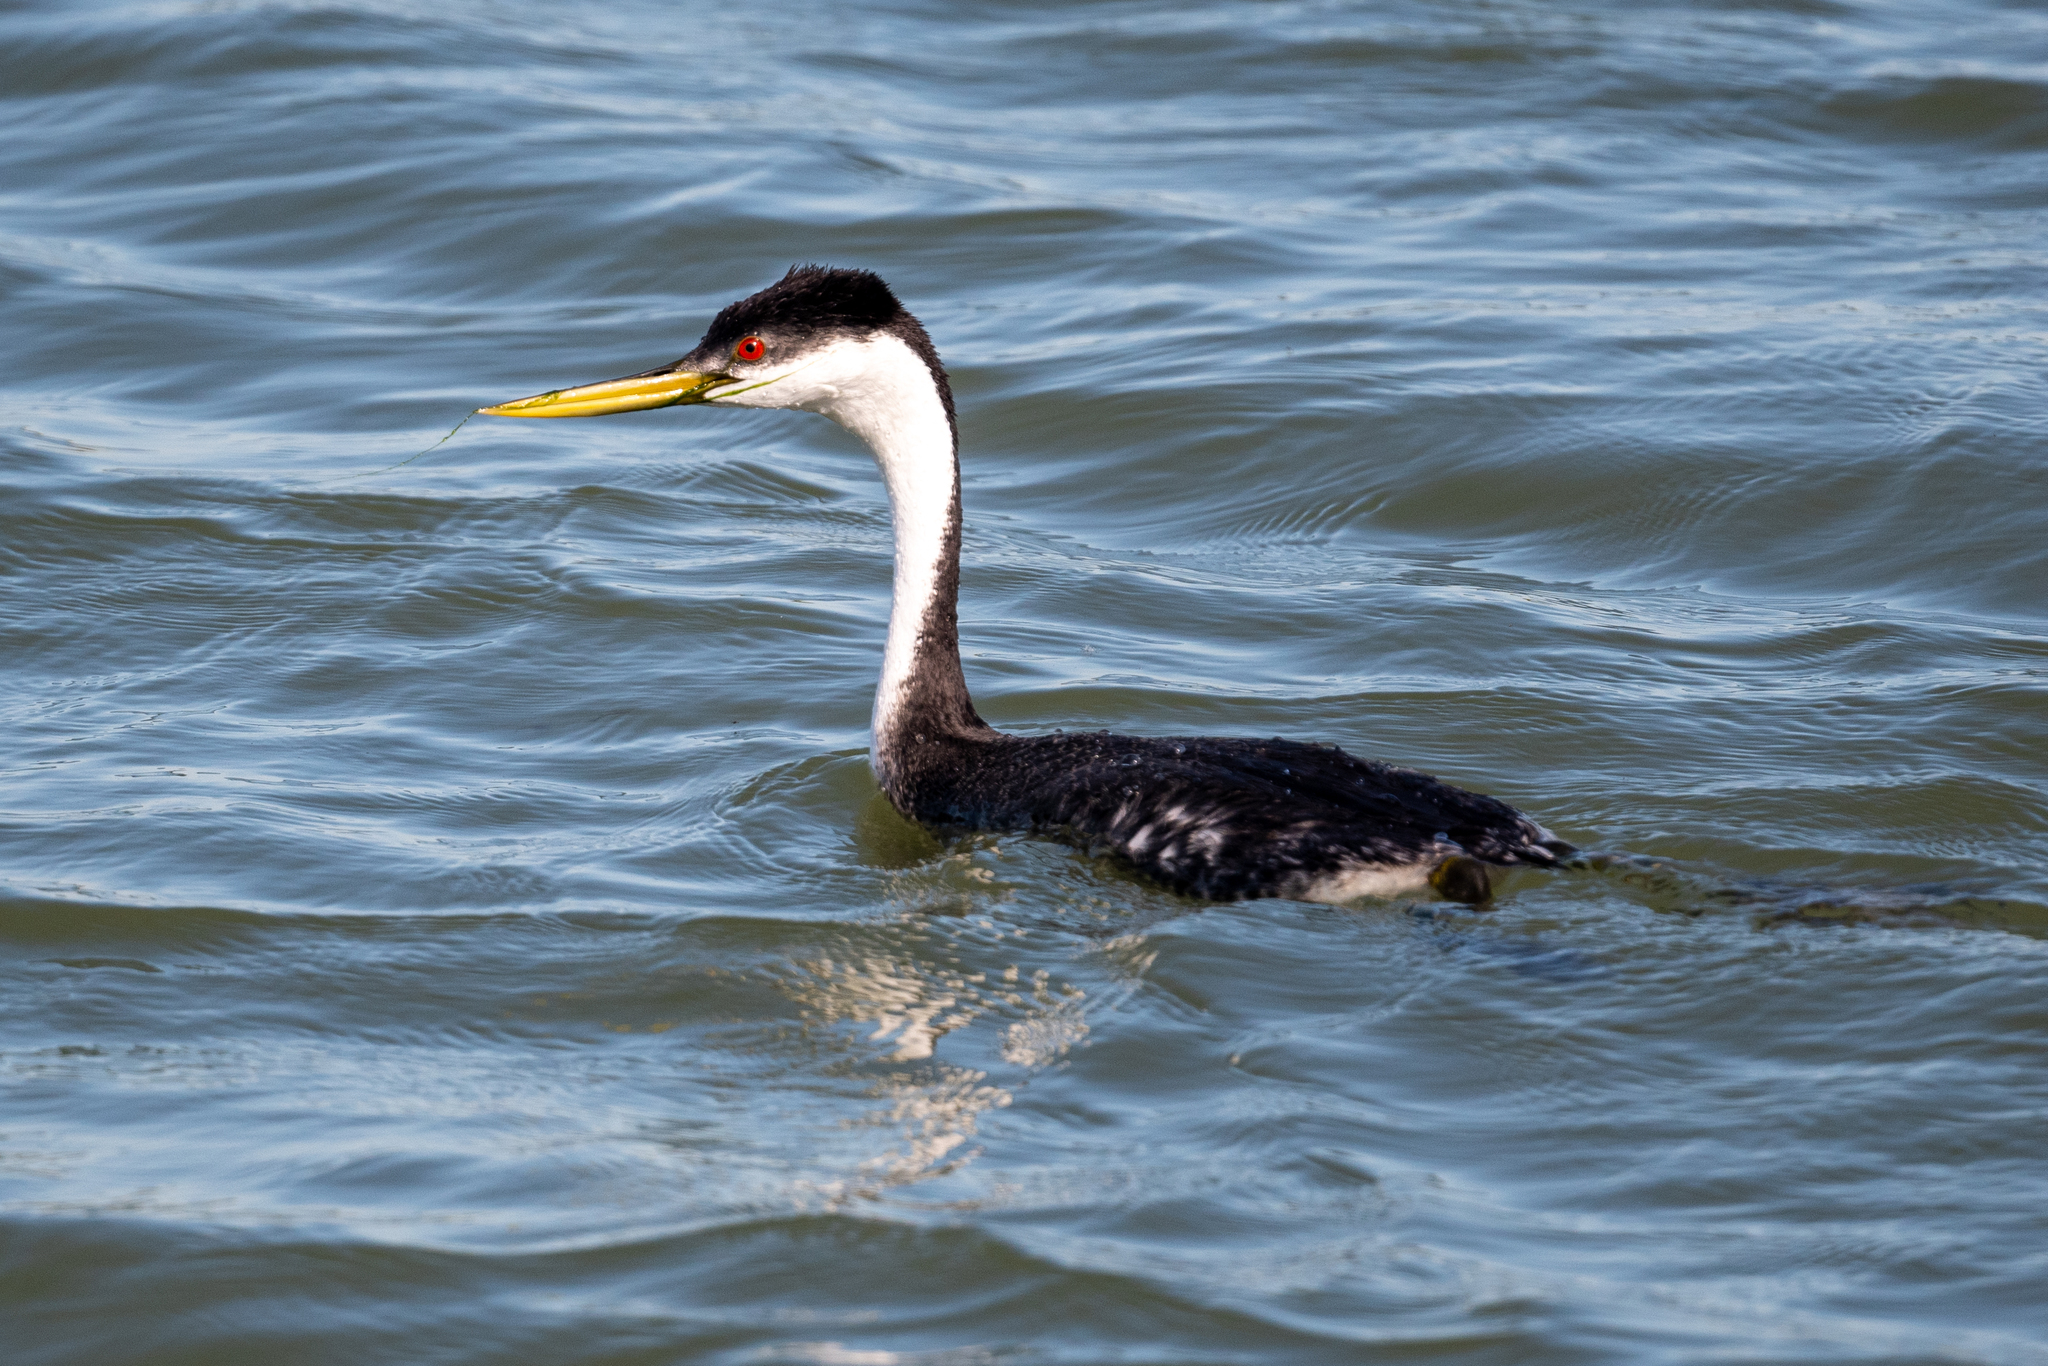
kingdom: Animalia
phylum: Chordata
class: Aves
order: Podicipediformes
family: Podicipedidae
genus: Aechmophorus
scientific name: Aechmophorus occidentalis
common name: Western grebe
